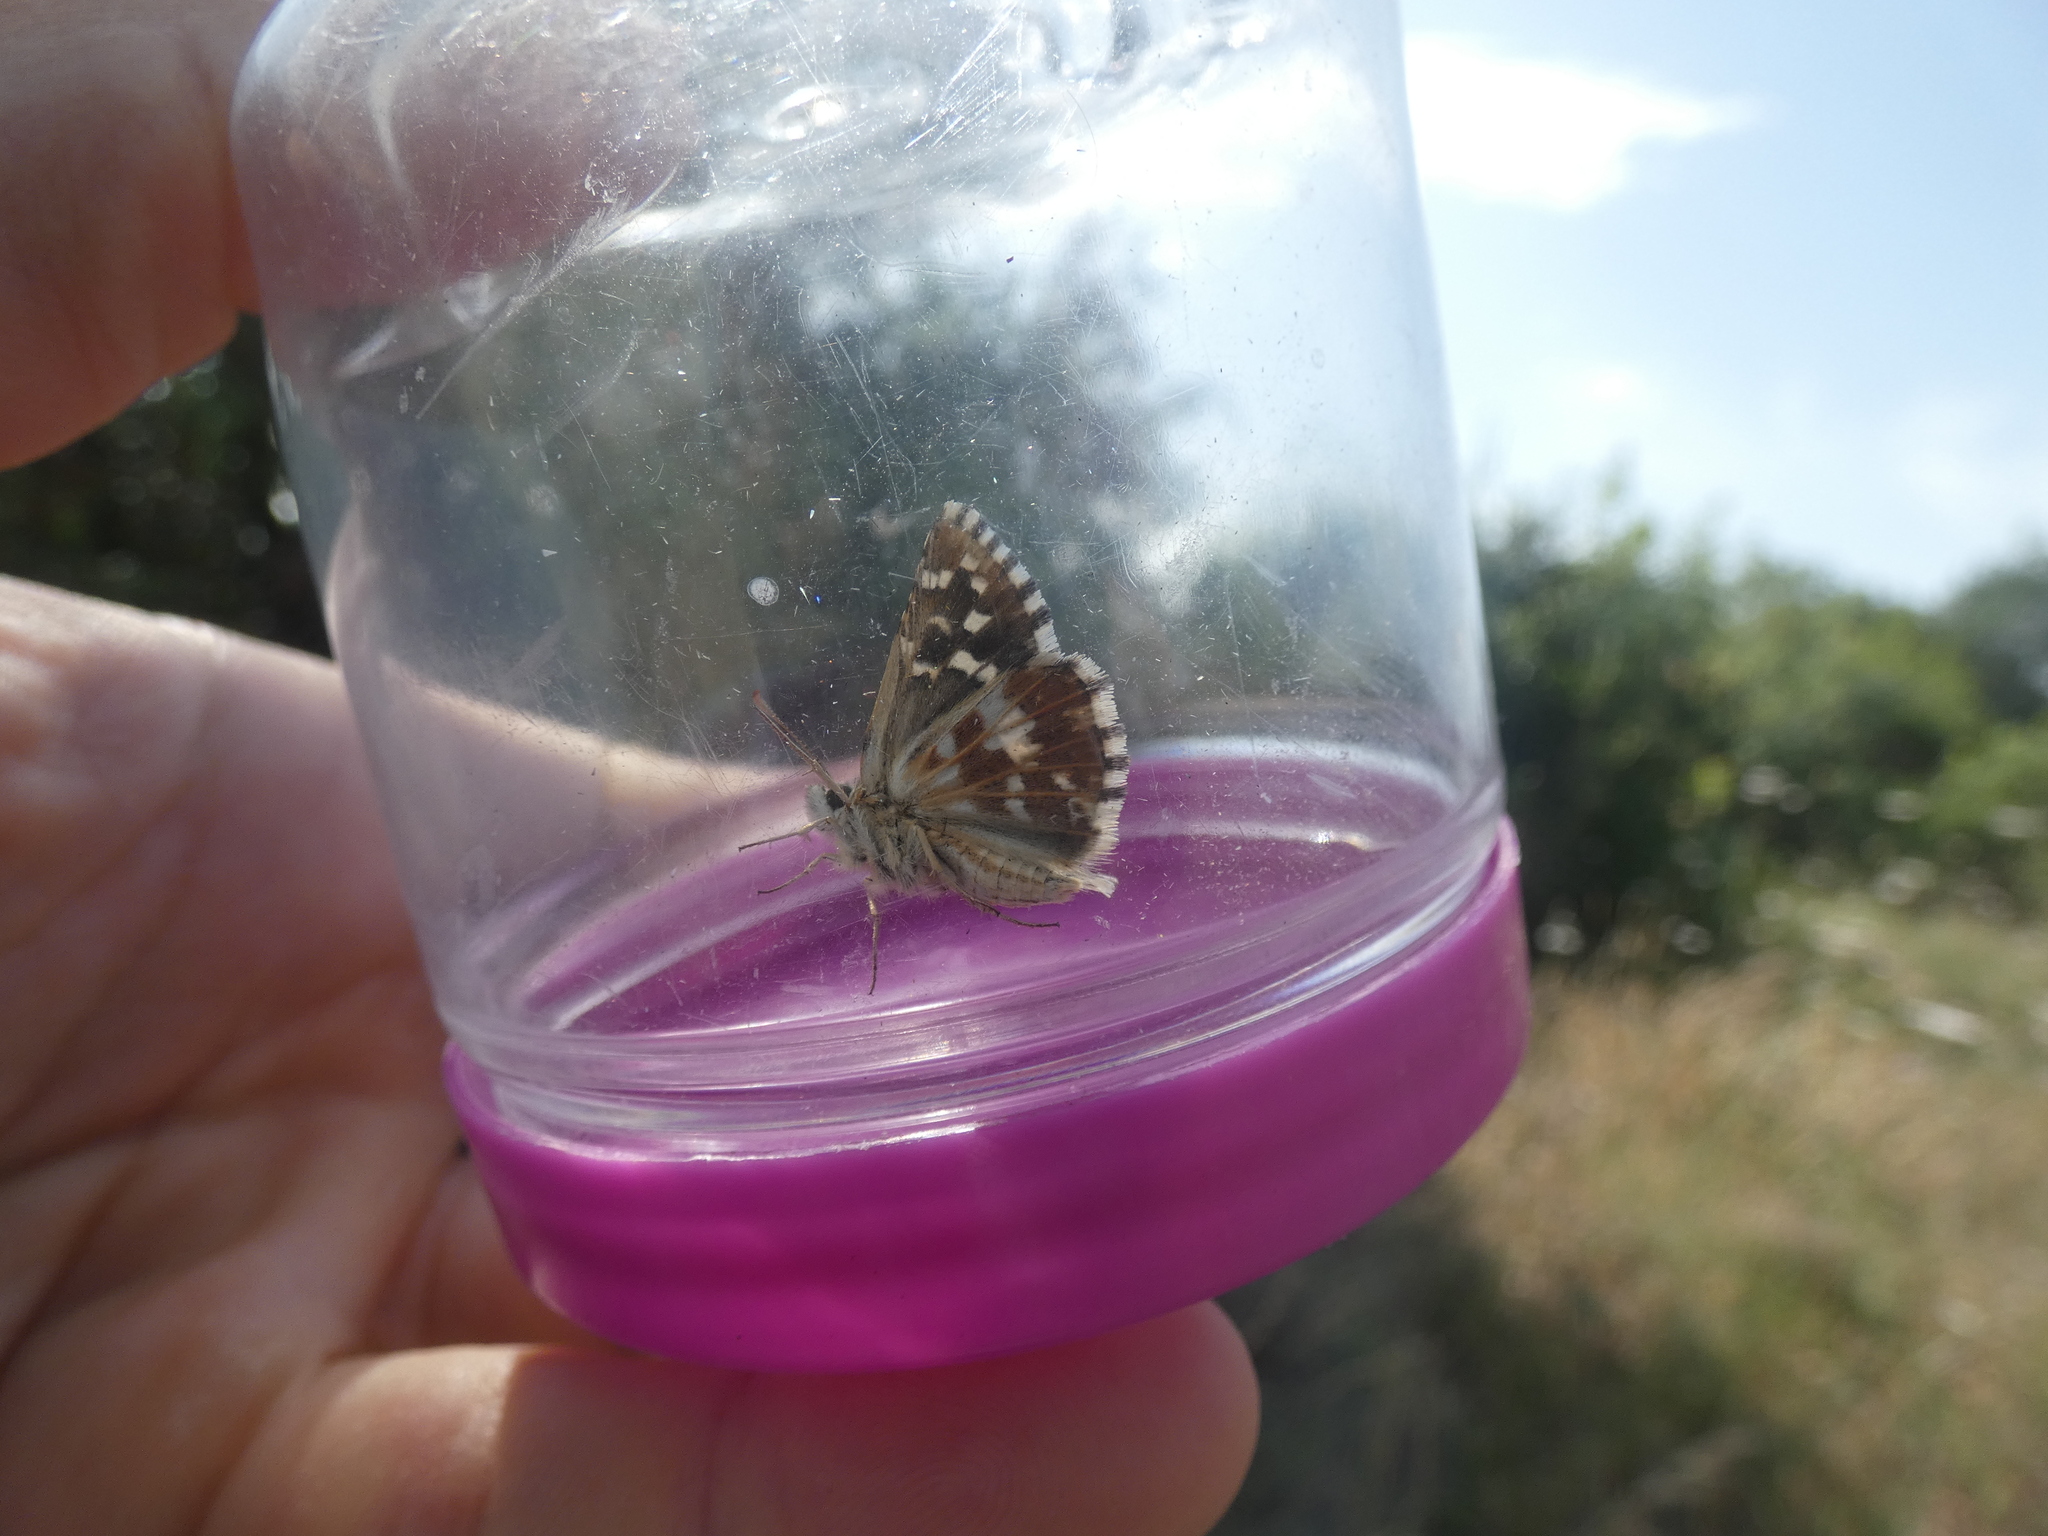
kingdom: Animalia
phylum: Arthropoda
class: Insecta
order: Lepidoptera
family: Hesperiidae
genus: Pyrgus
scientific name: Pyrgus malvoides
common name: Southern grizzled skipper
